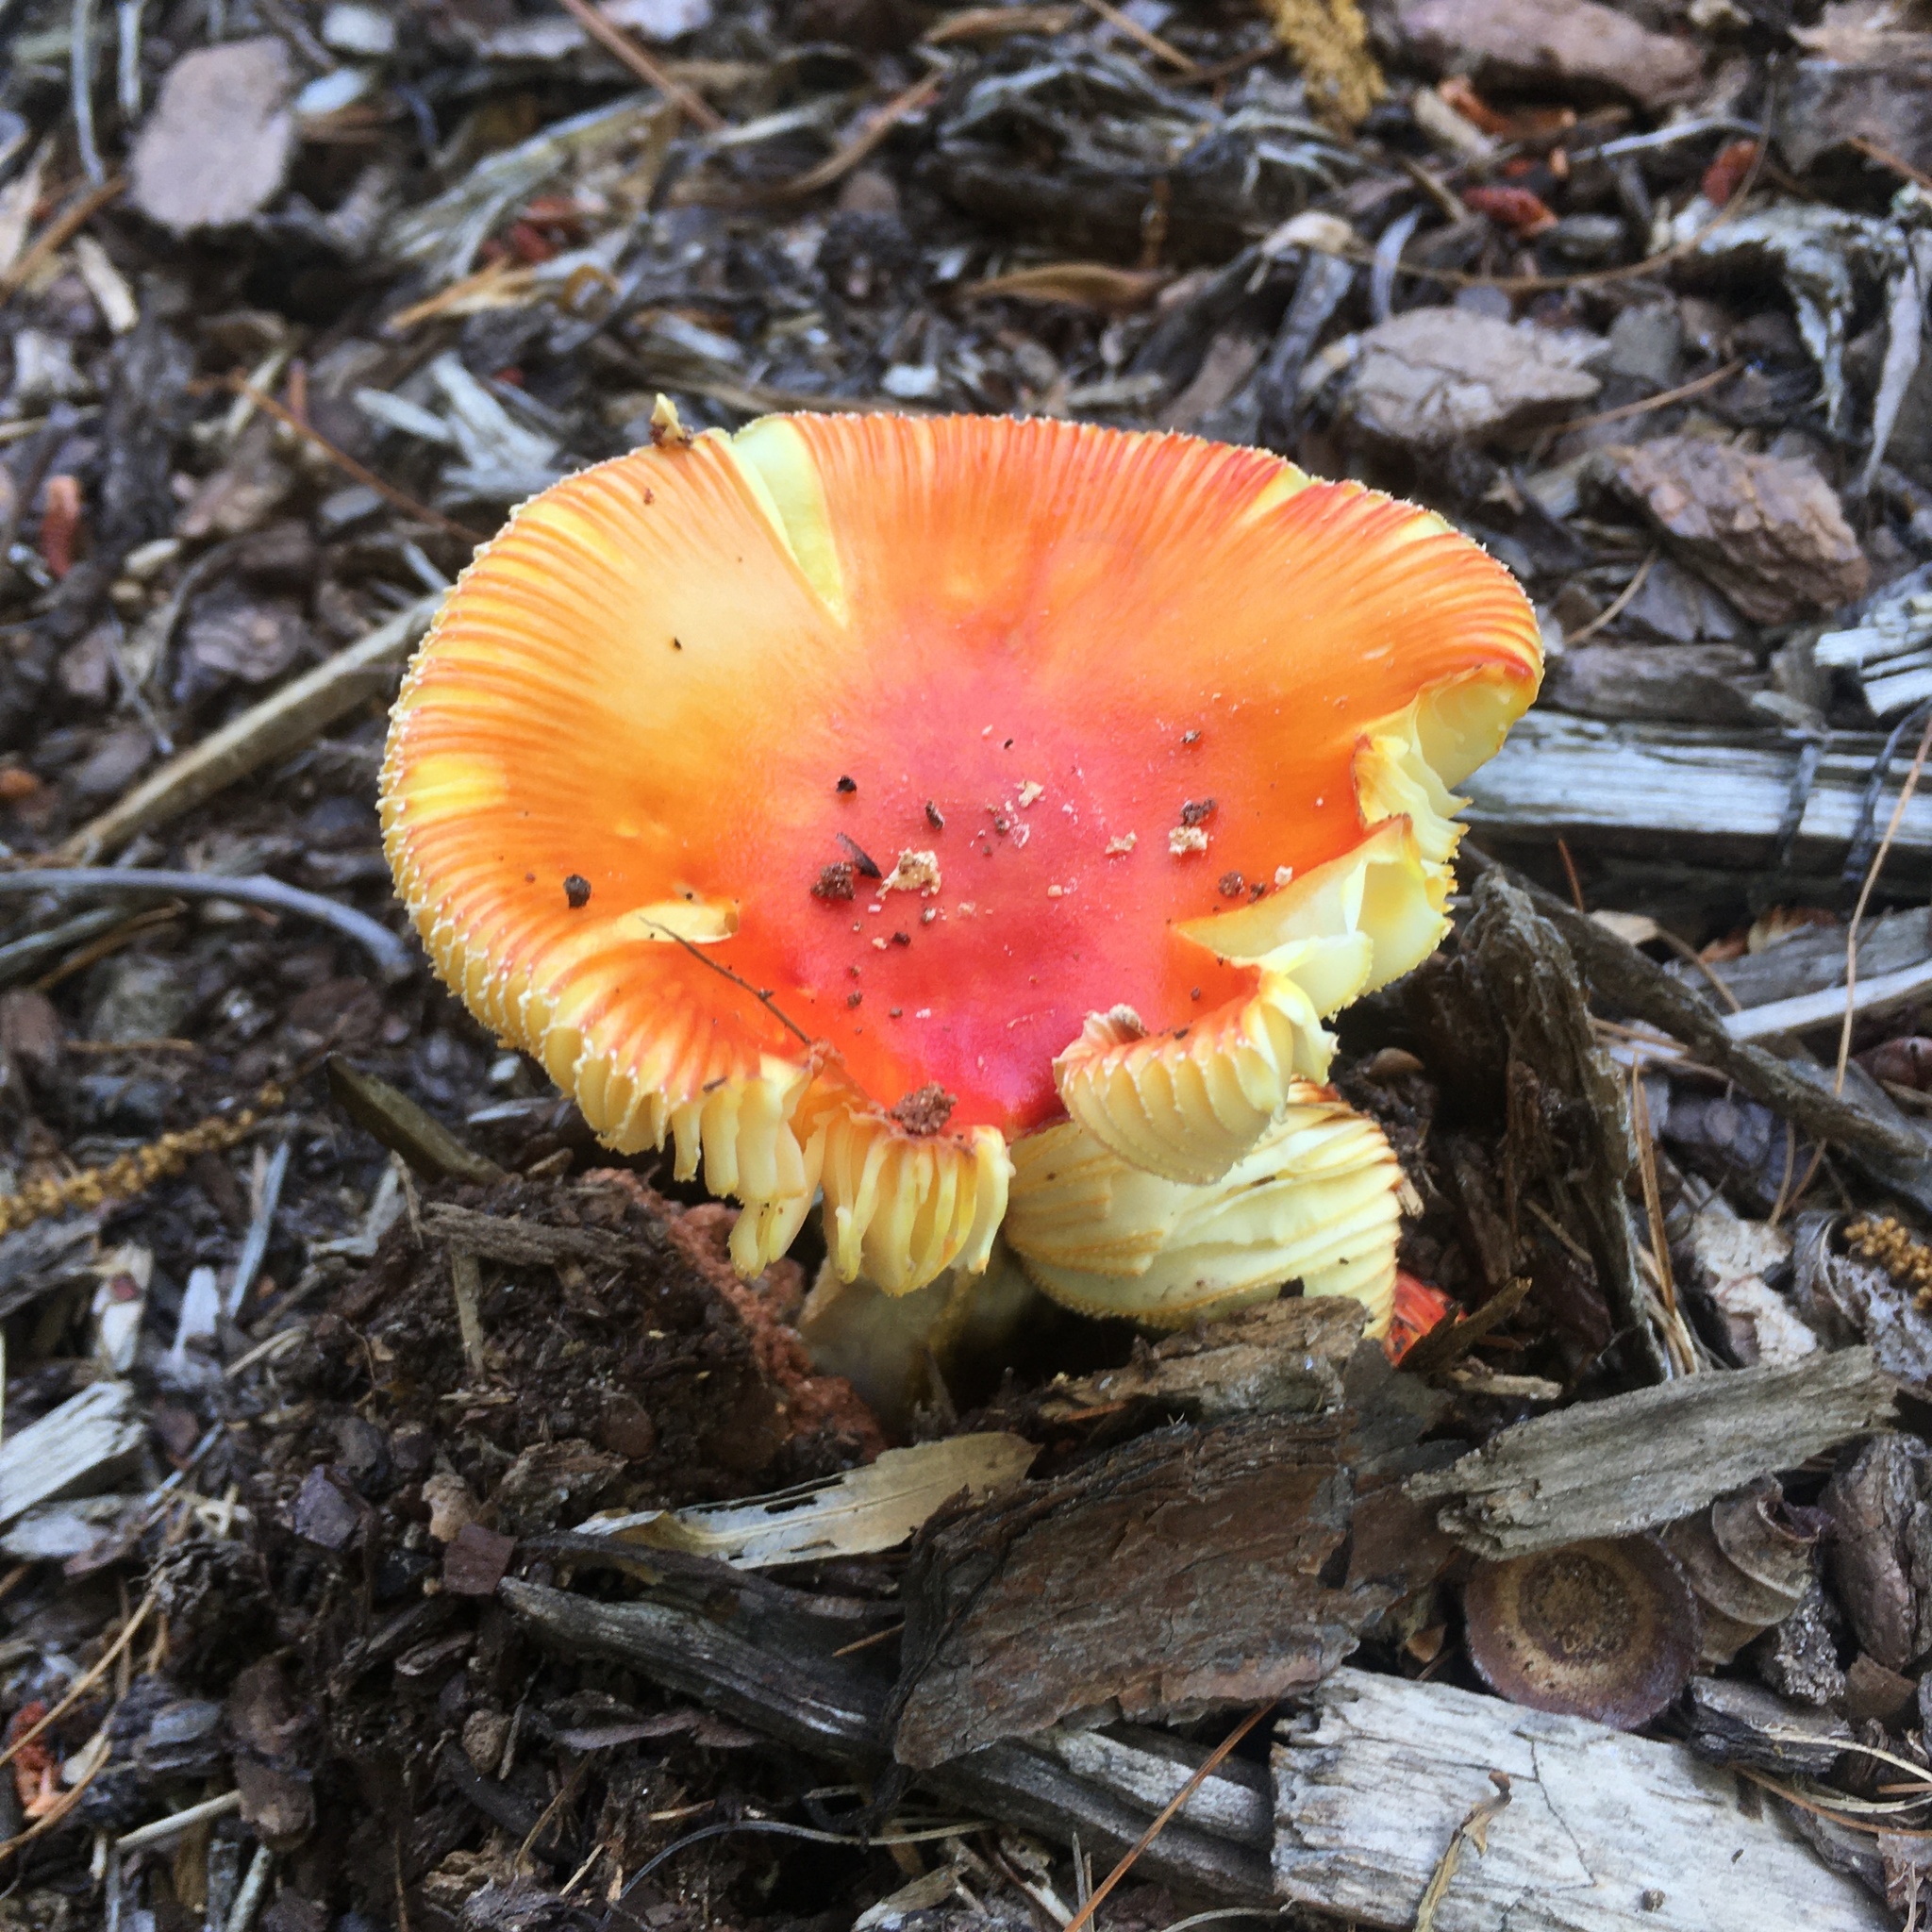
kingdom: Fungi
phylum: Basidiomycota
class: Agaricomycetes
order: Agaricales
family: Amanitaceae
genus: Amanita
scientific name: Amanita parcivolvata
